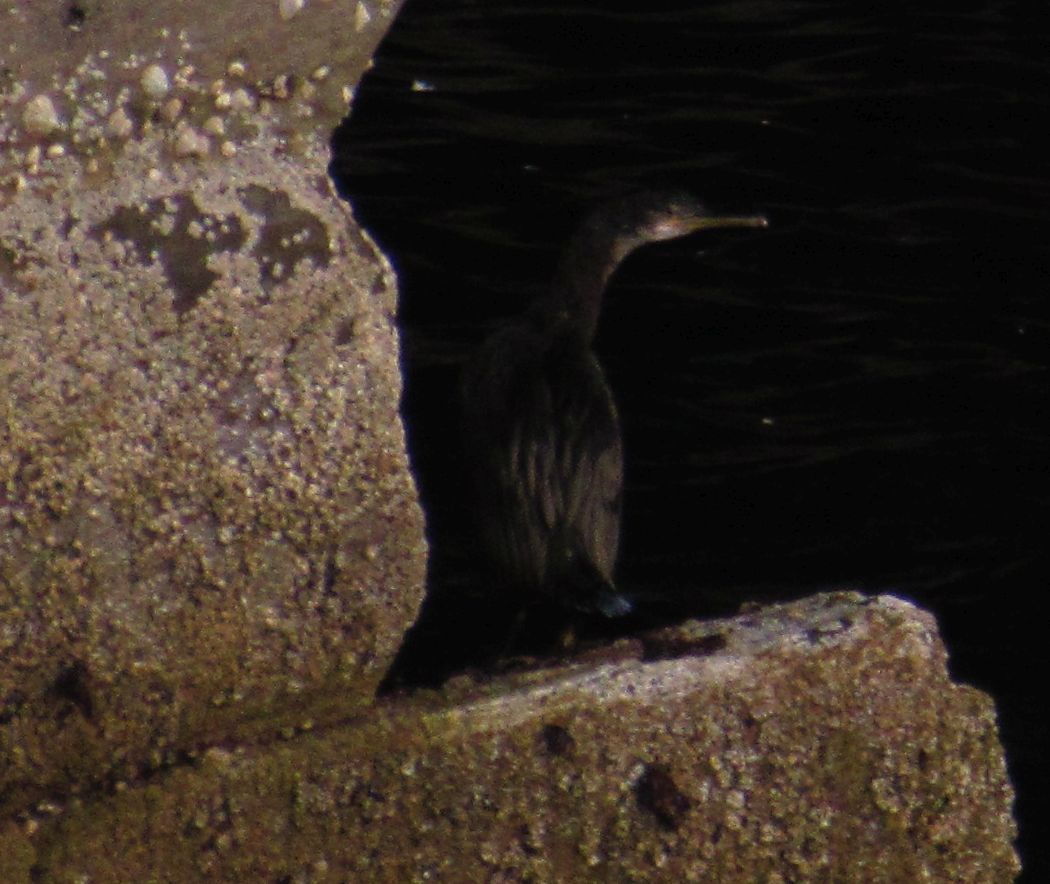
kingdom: Animalia
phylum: Chordata
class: Aves
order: Suliformes
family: Phalacrocoracidae
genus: Phalacrocorax
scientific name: Phalacrocorax aristotelis
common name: European shag
